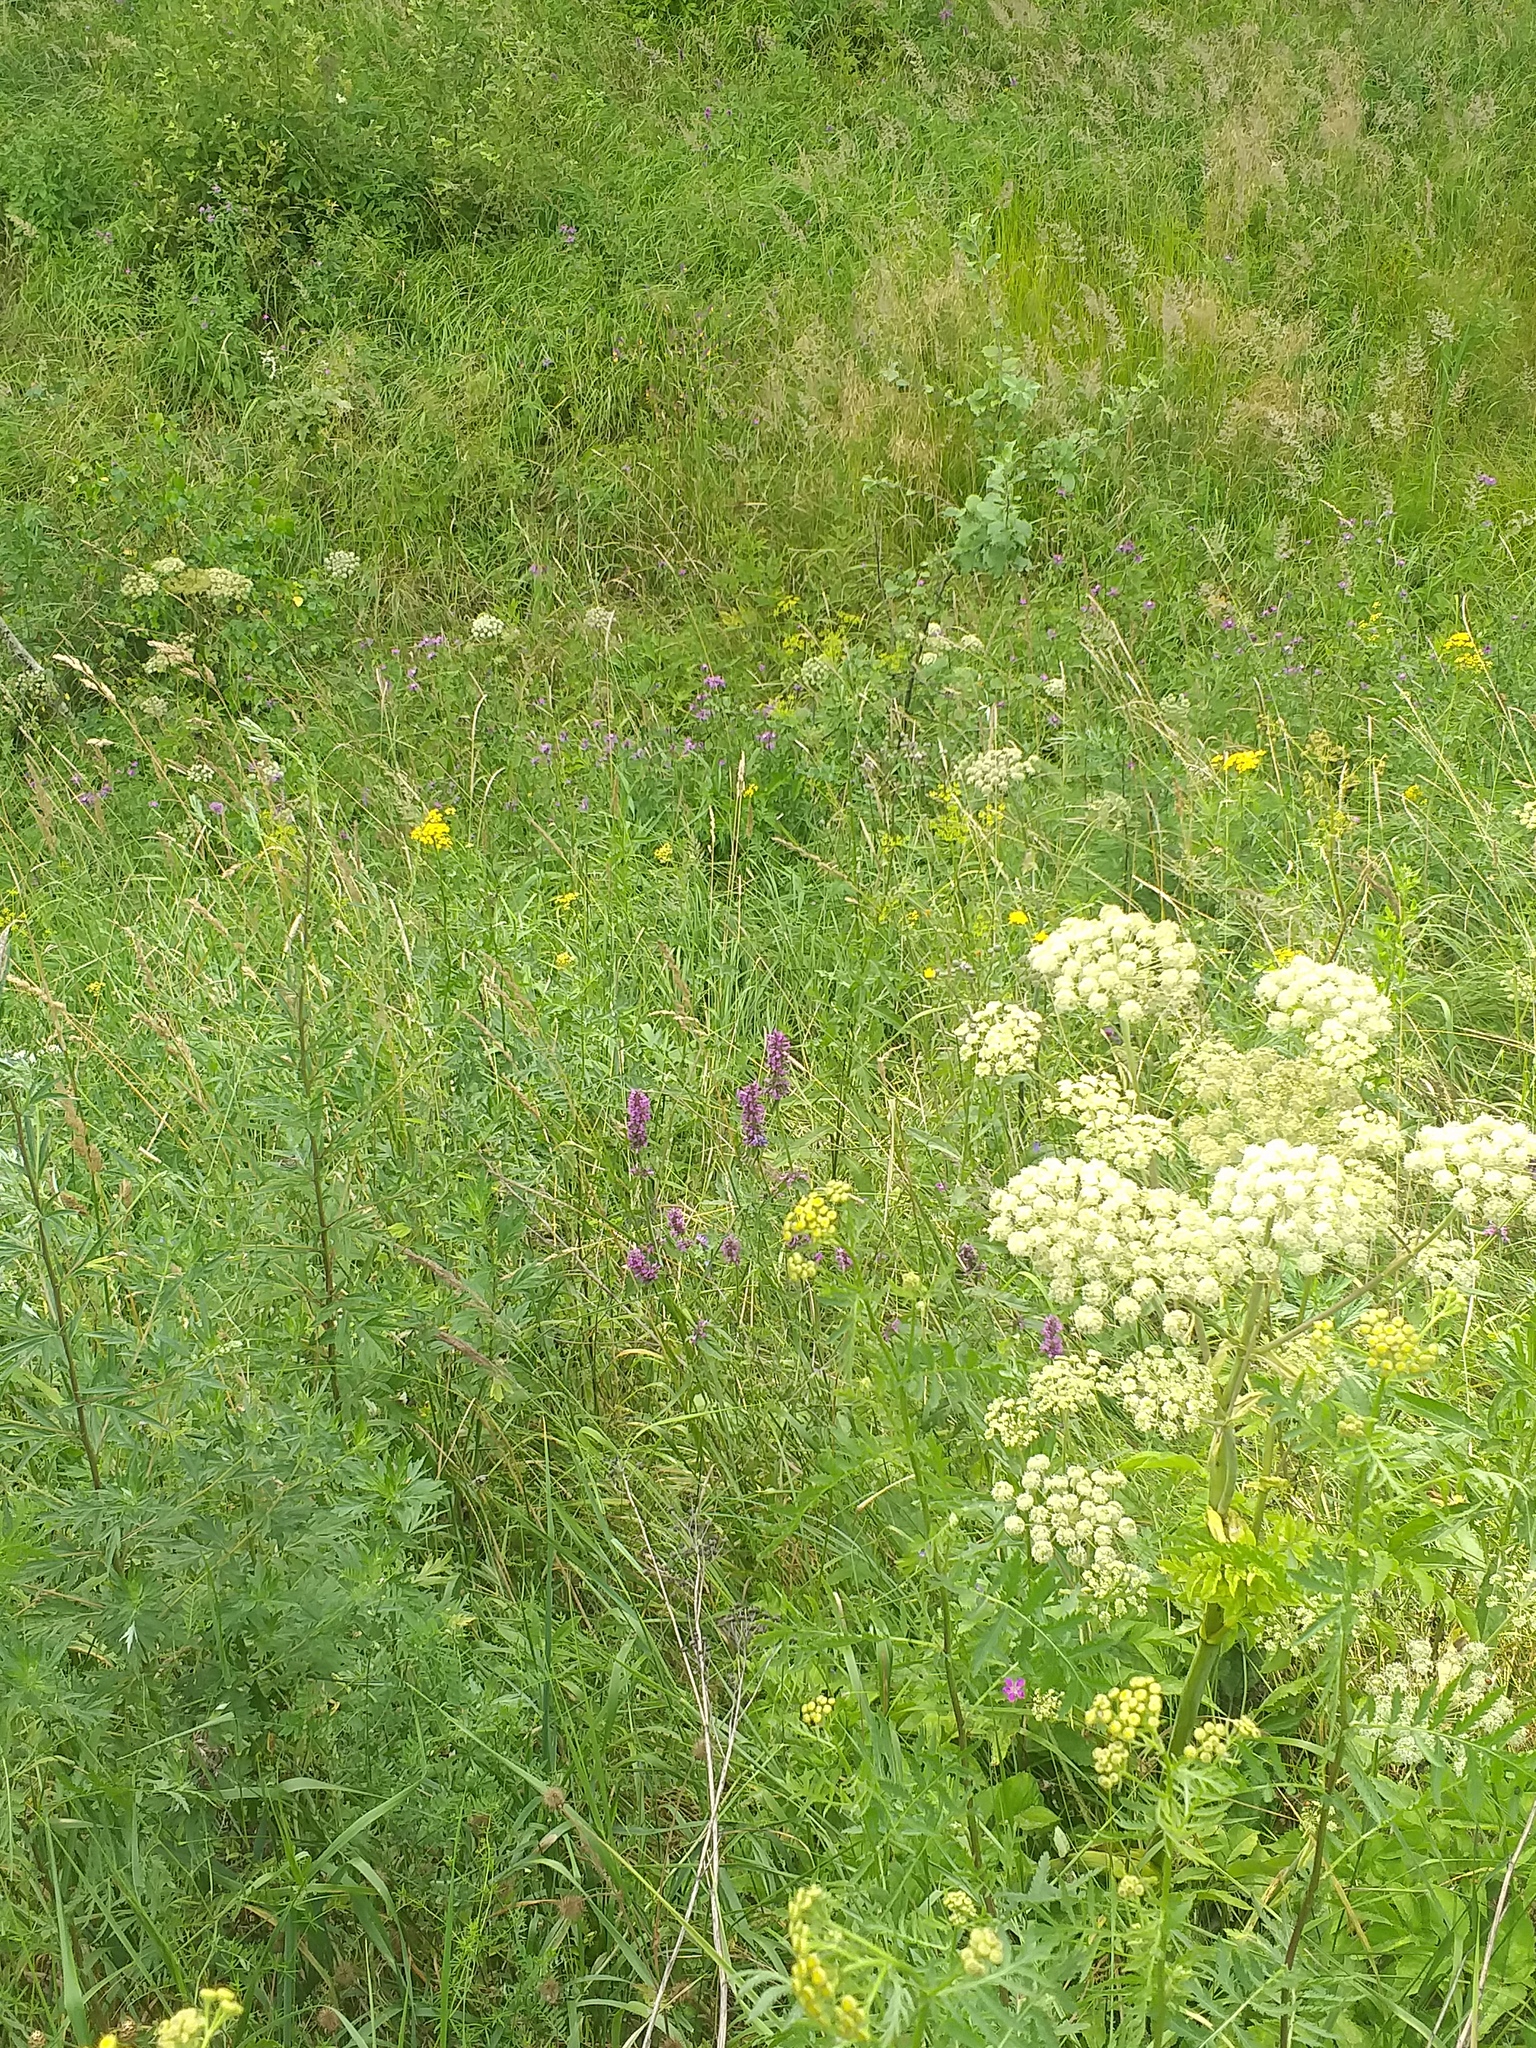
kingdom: Plantae
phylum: Tracheophyta
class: Magnoliopsida
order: Lamiales
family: Lamiaceae
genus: Betonica
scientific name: Betonica officinalis
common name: Bishop's-wort
